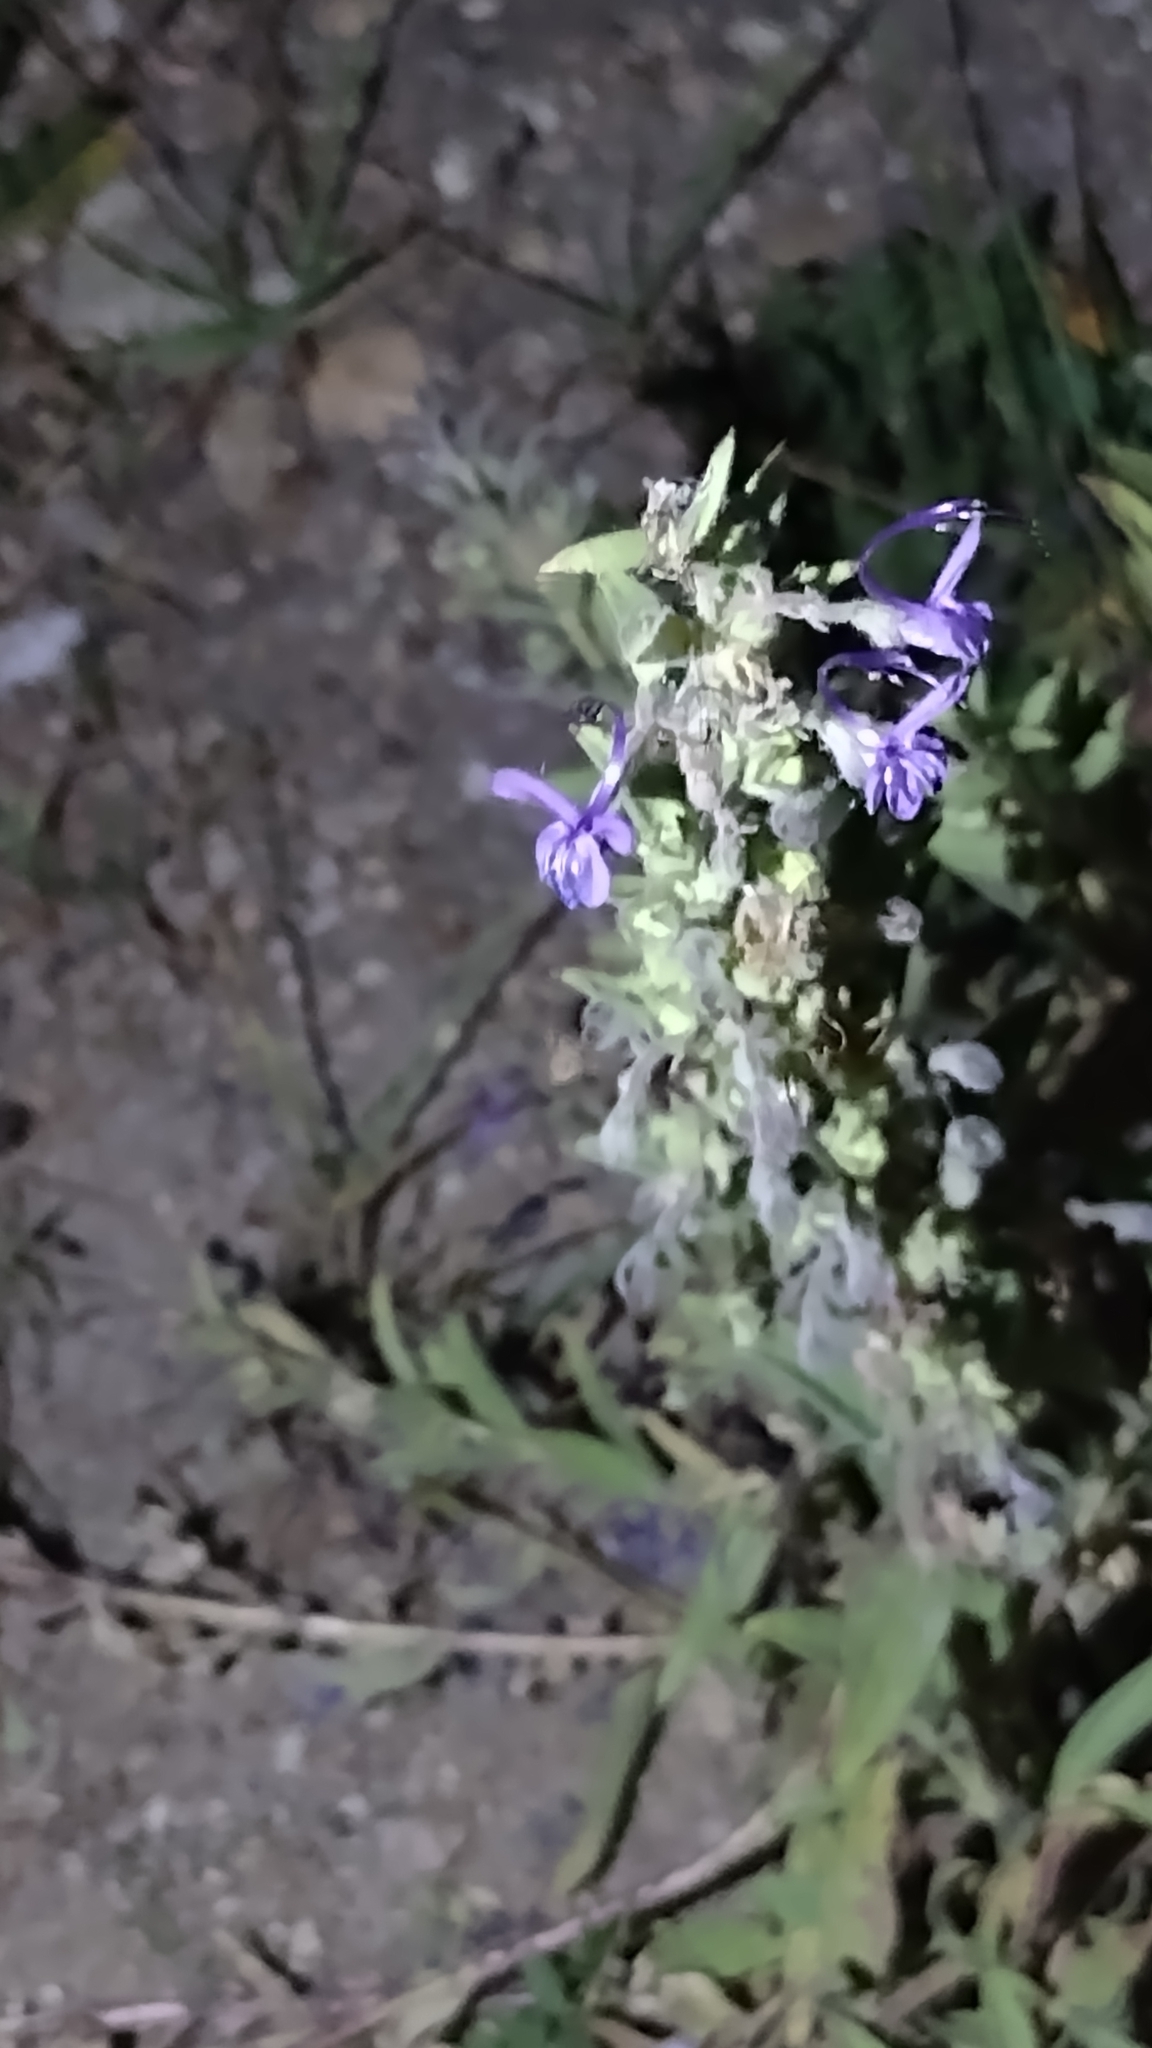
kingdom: Plantae
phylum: Tracheophyta
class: Magnoliopsida
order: Lamiales
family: Lamiaceae
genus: Trichostema
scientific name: Trichostema lanceolatum
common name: Vinegar-weed
